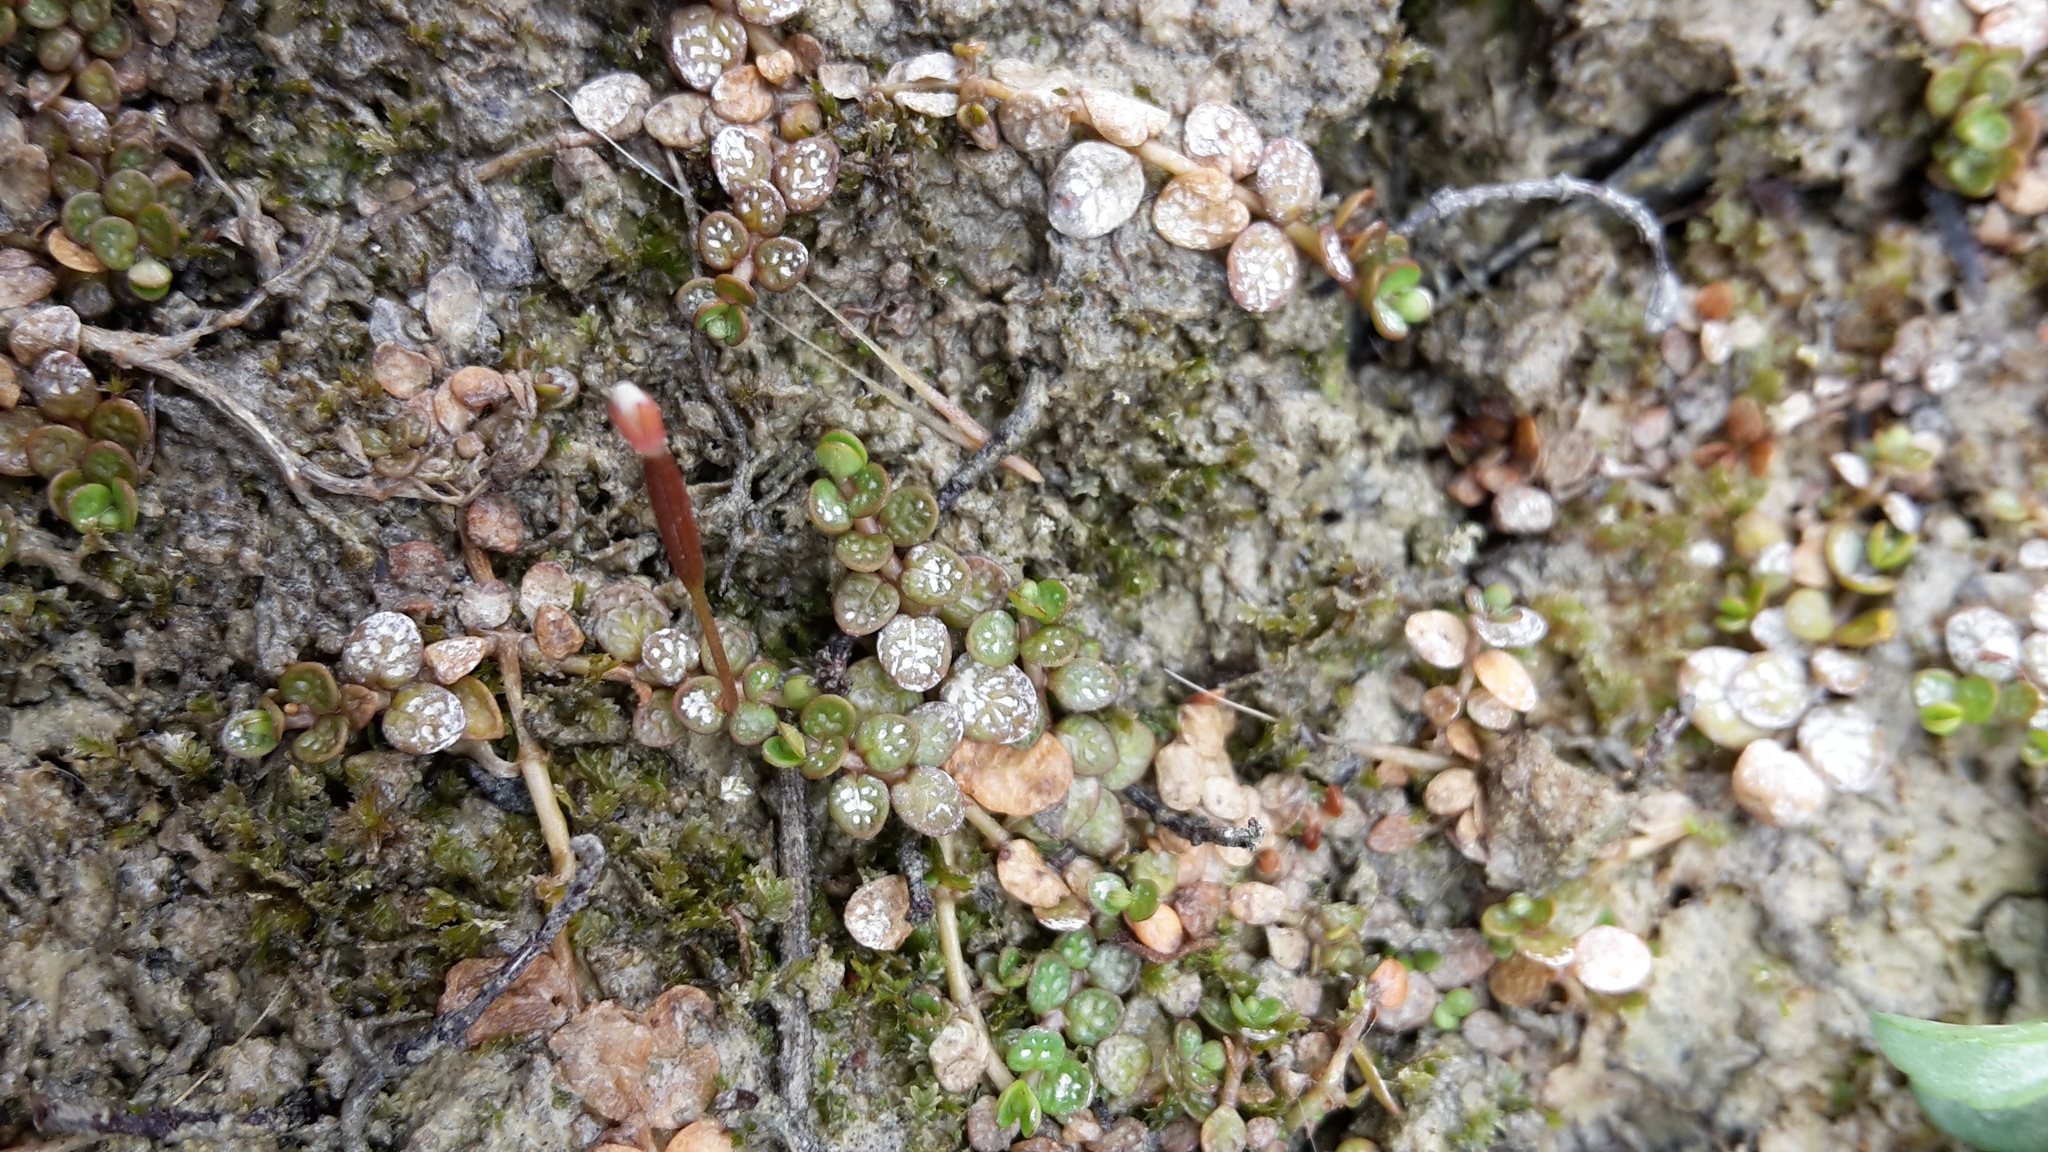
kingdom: Plantae
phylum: Tracheophyta
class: Magnoliopsida
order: Myrtales
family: Onagraceae
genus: Epilobium
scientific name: Epilobium komarovianum
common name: Bronzy willowherb
